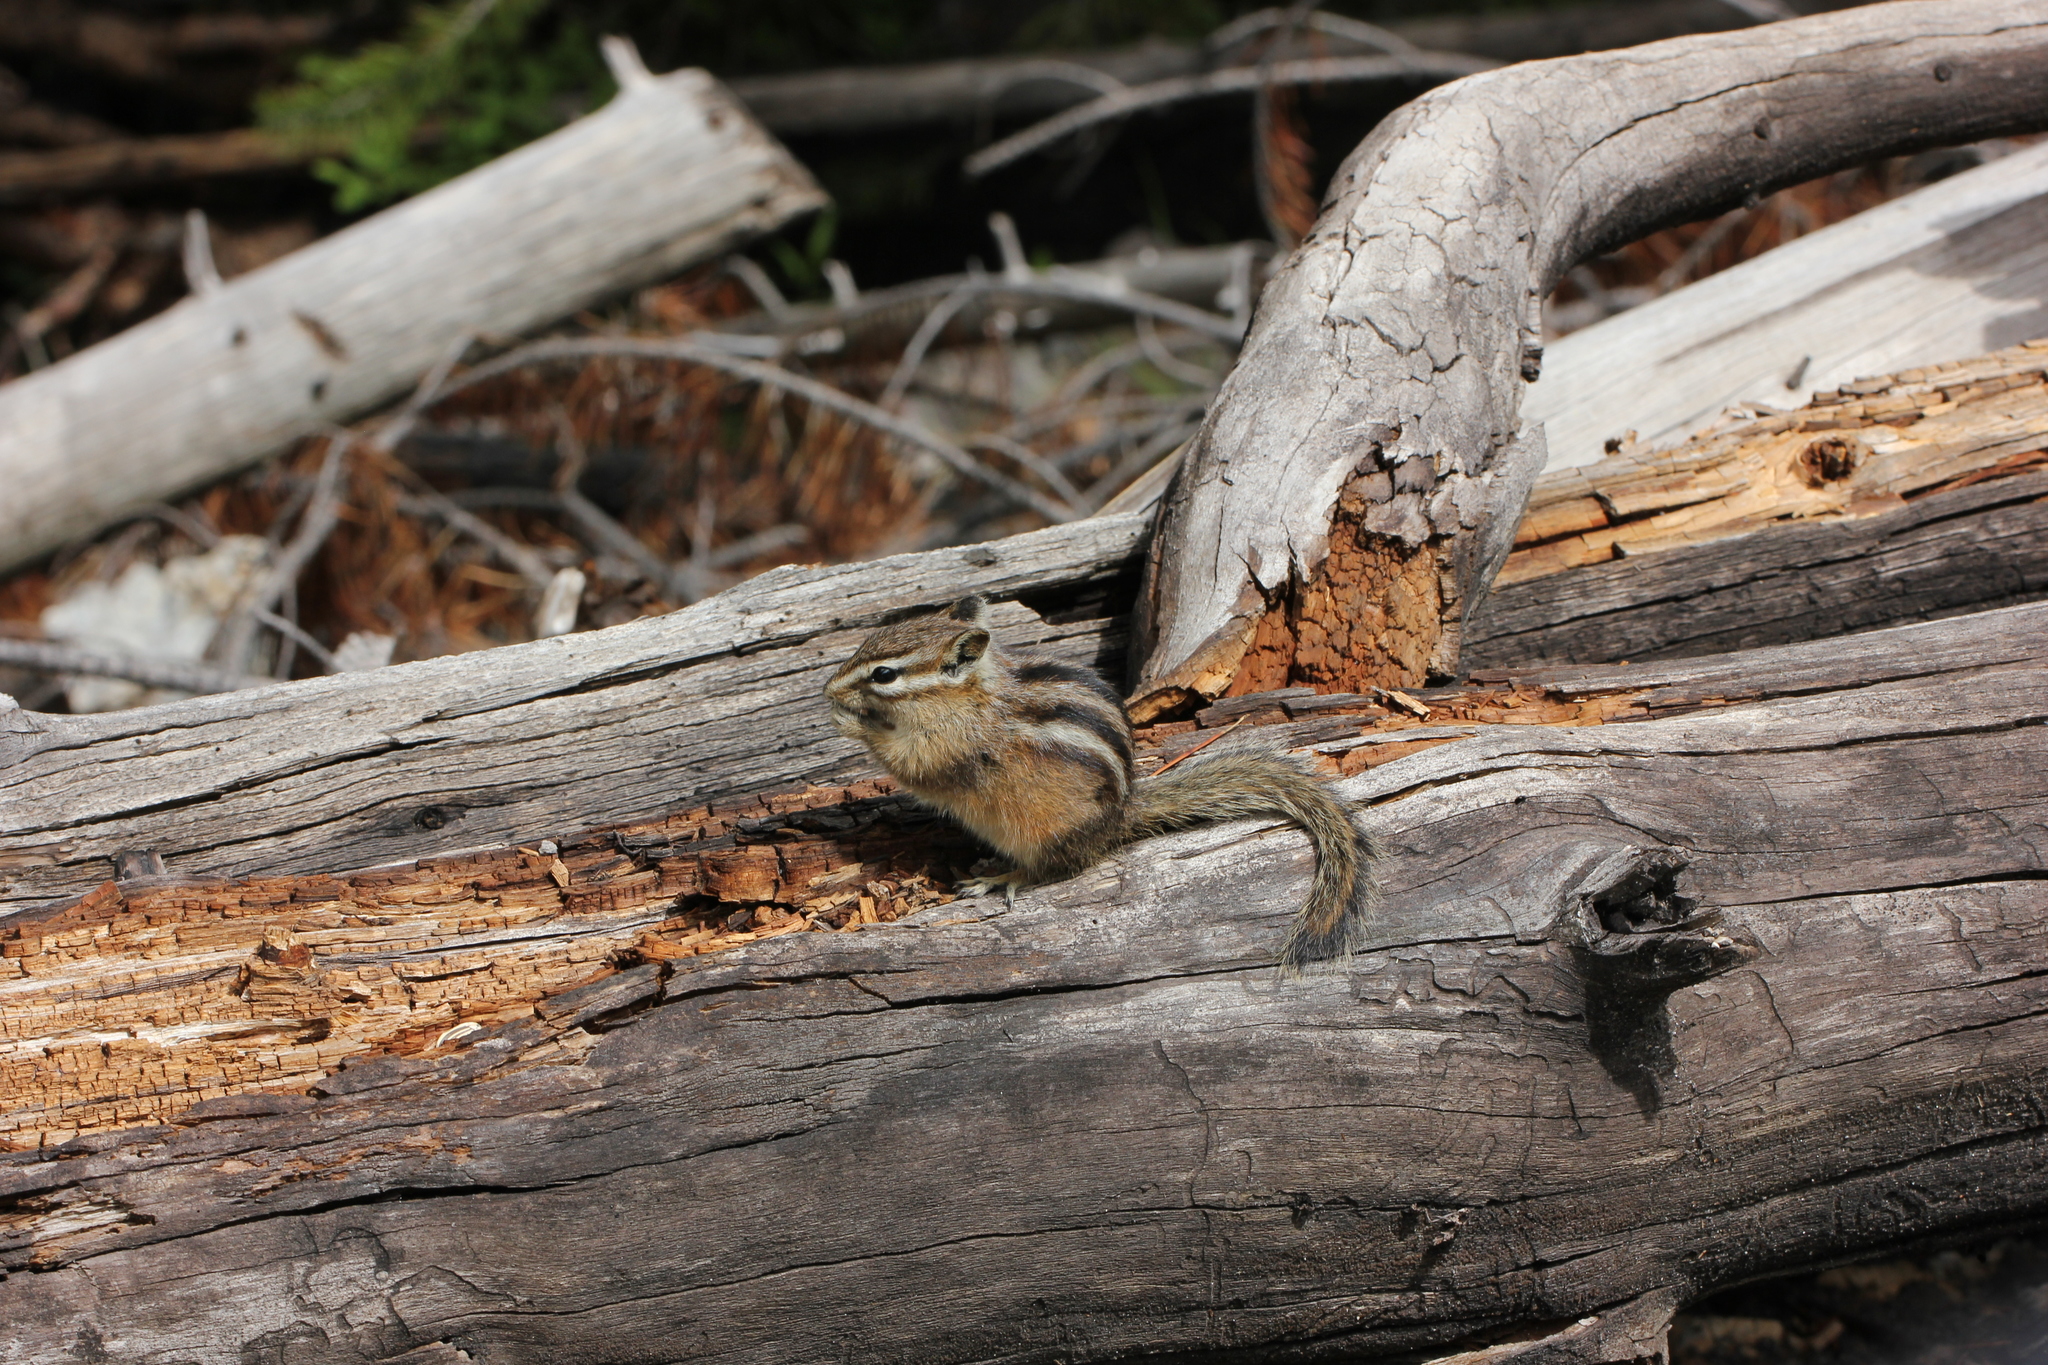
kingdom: Animalia
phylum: Chordata
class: Mammalia
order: Rodentia
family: Sciuridae
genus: Tamias
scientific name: Tamias minimus
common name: Least chipmunk
